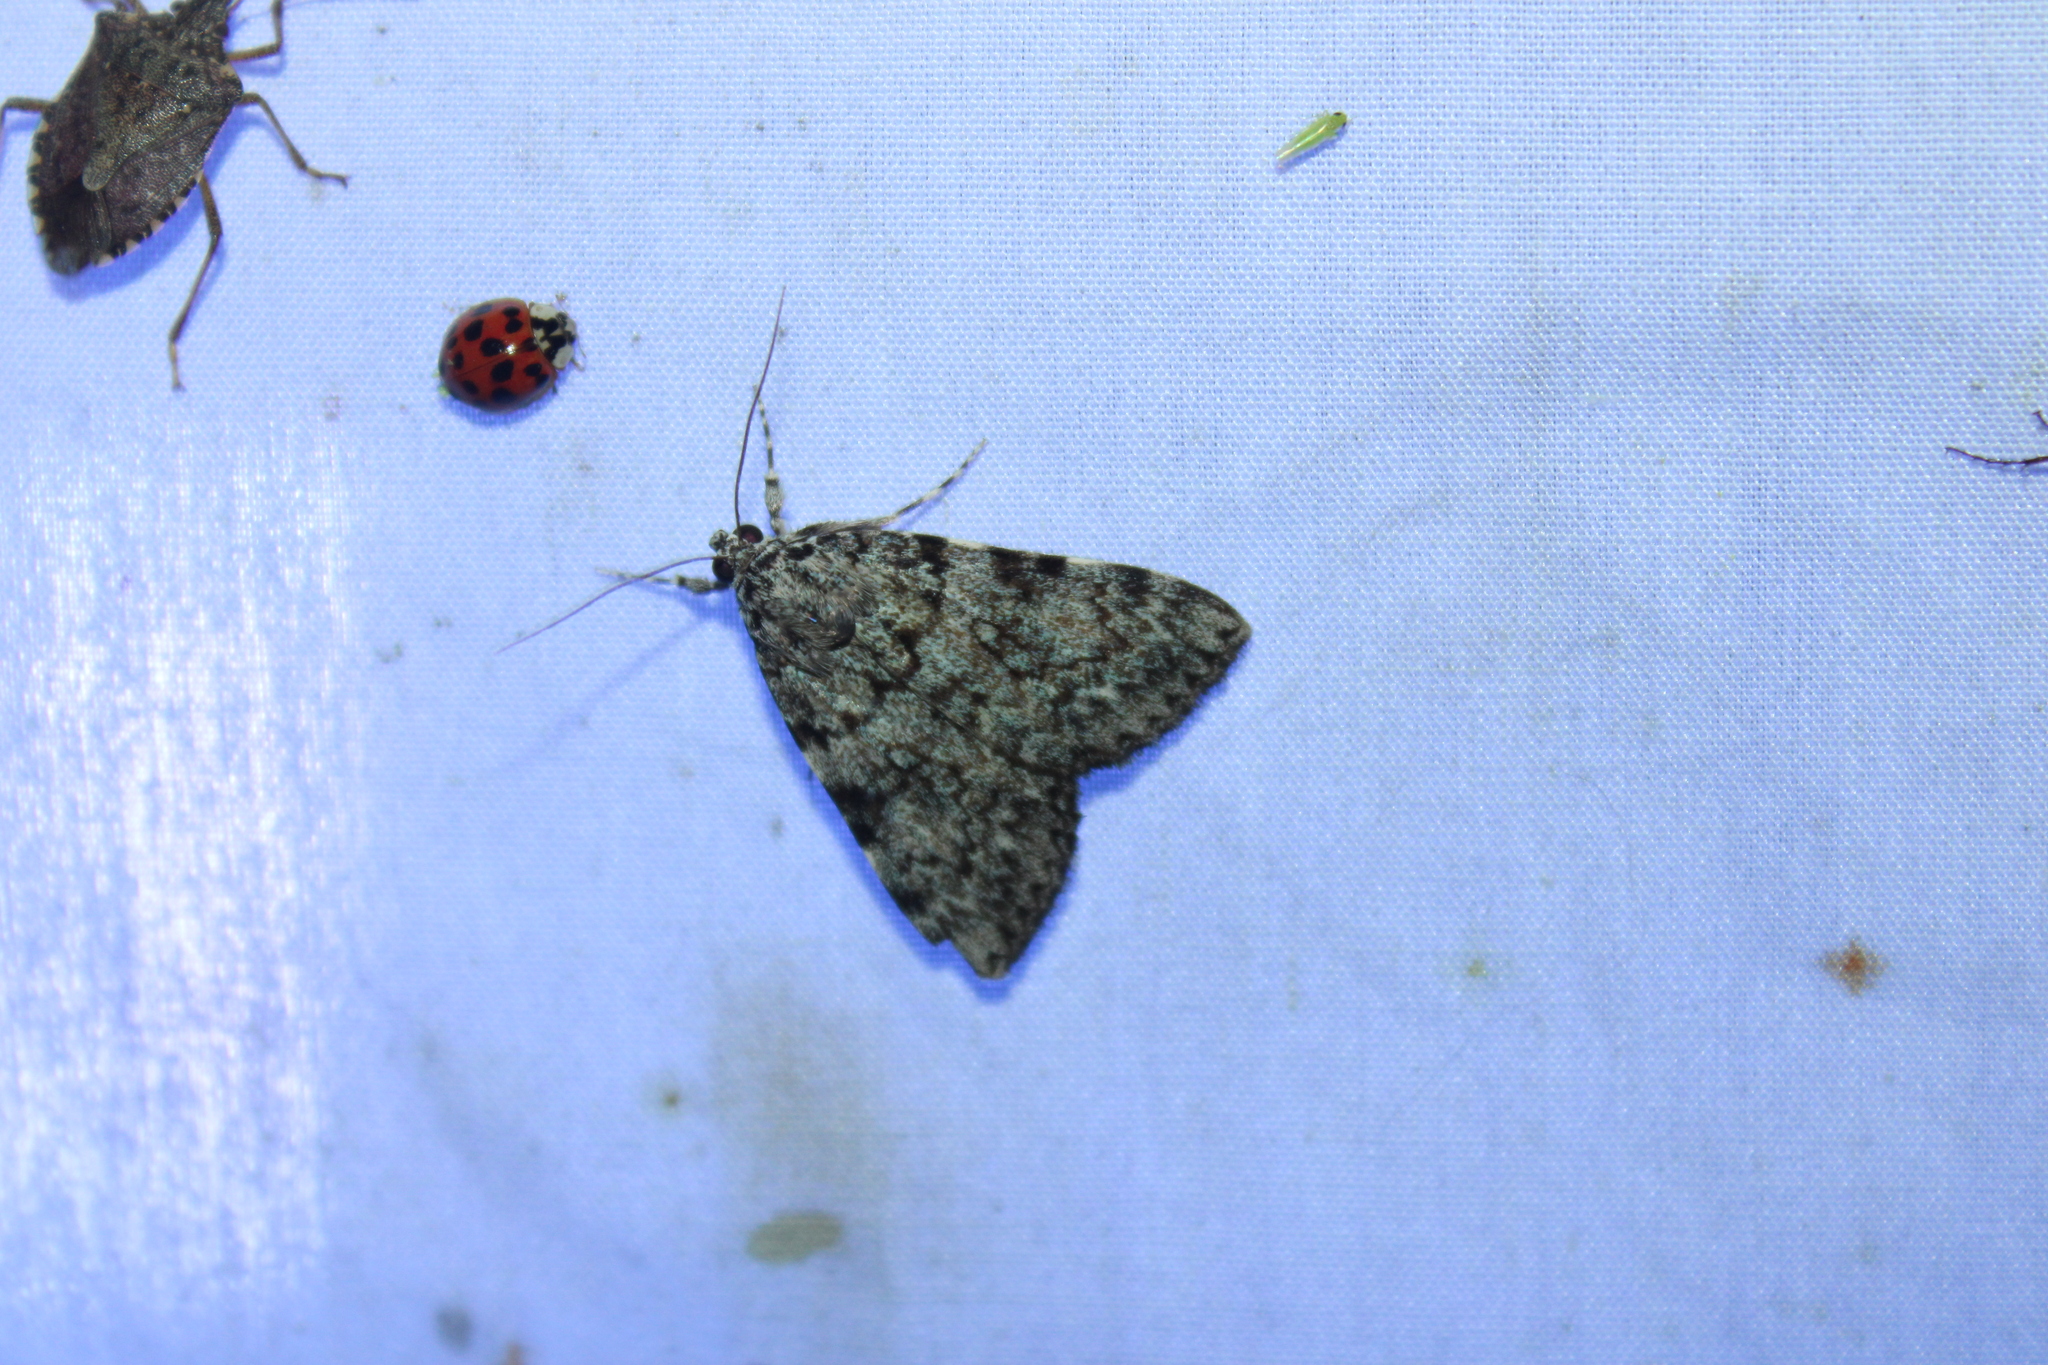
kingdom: Animalia
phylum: Arthropoda
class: Insecta
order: Lepidoptera
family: Erebidae
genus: Catocala
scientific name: Catocala lineella
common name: Little lined underwing
